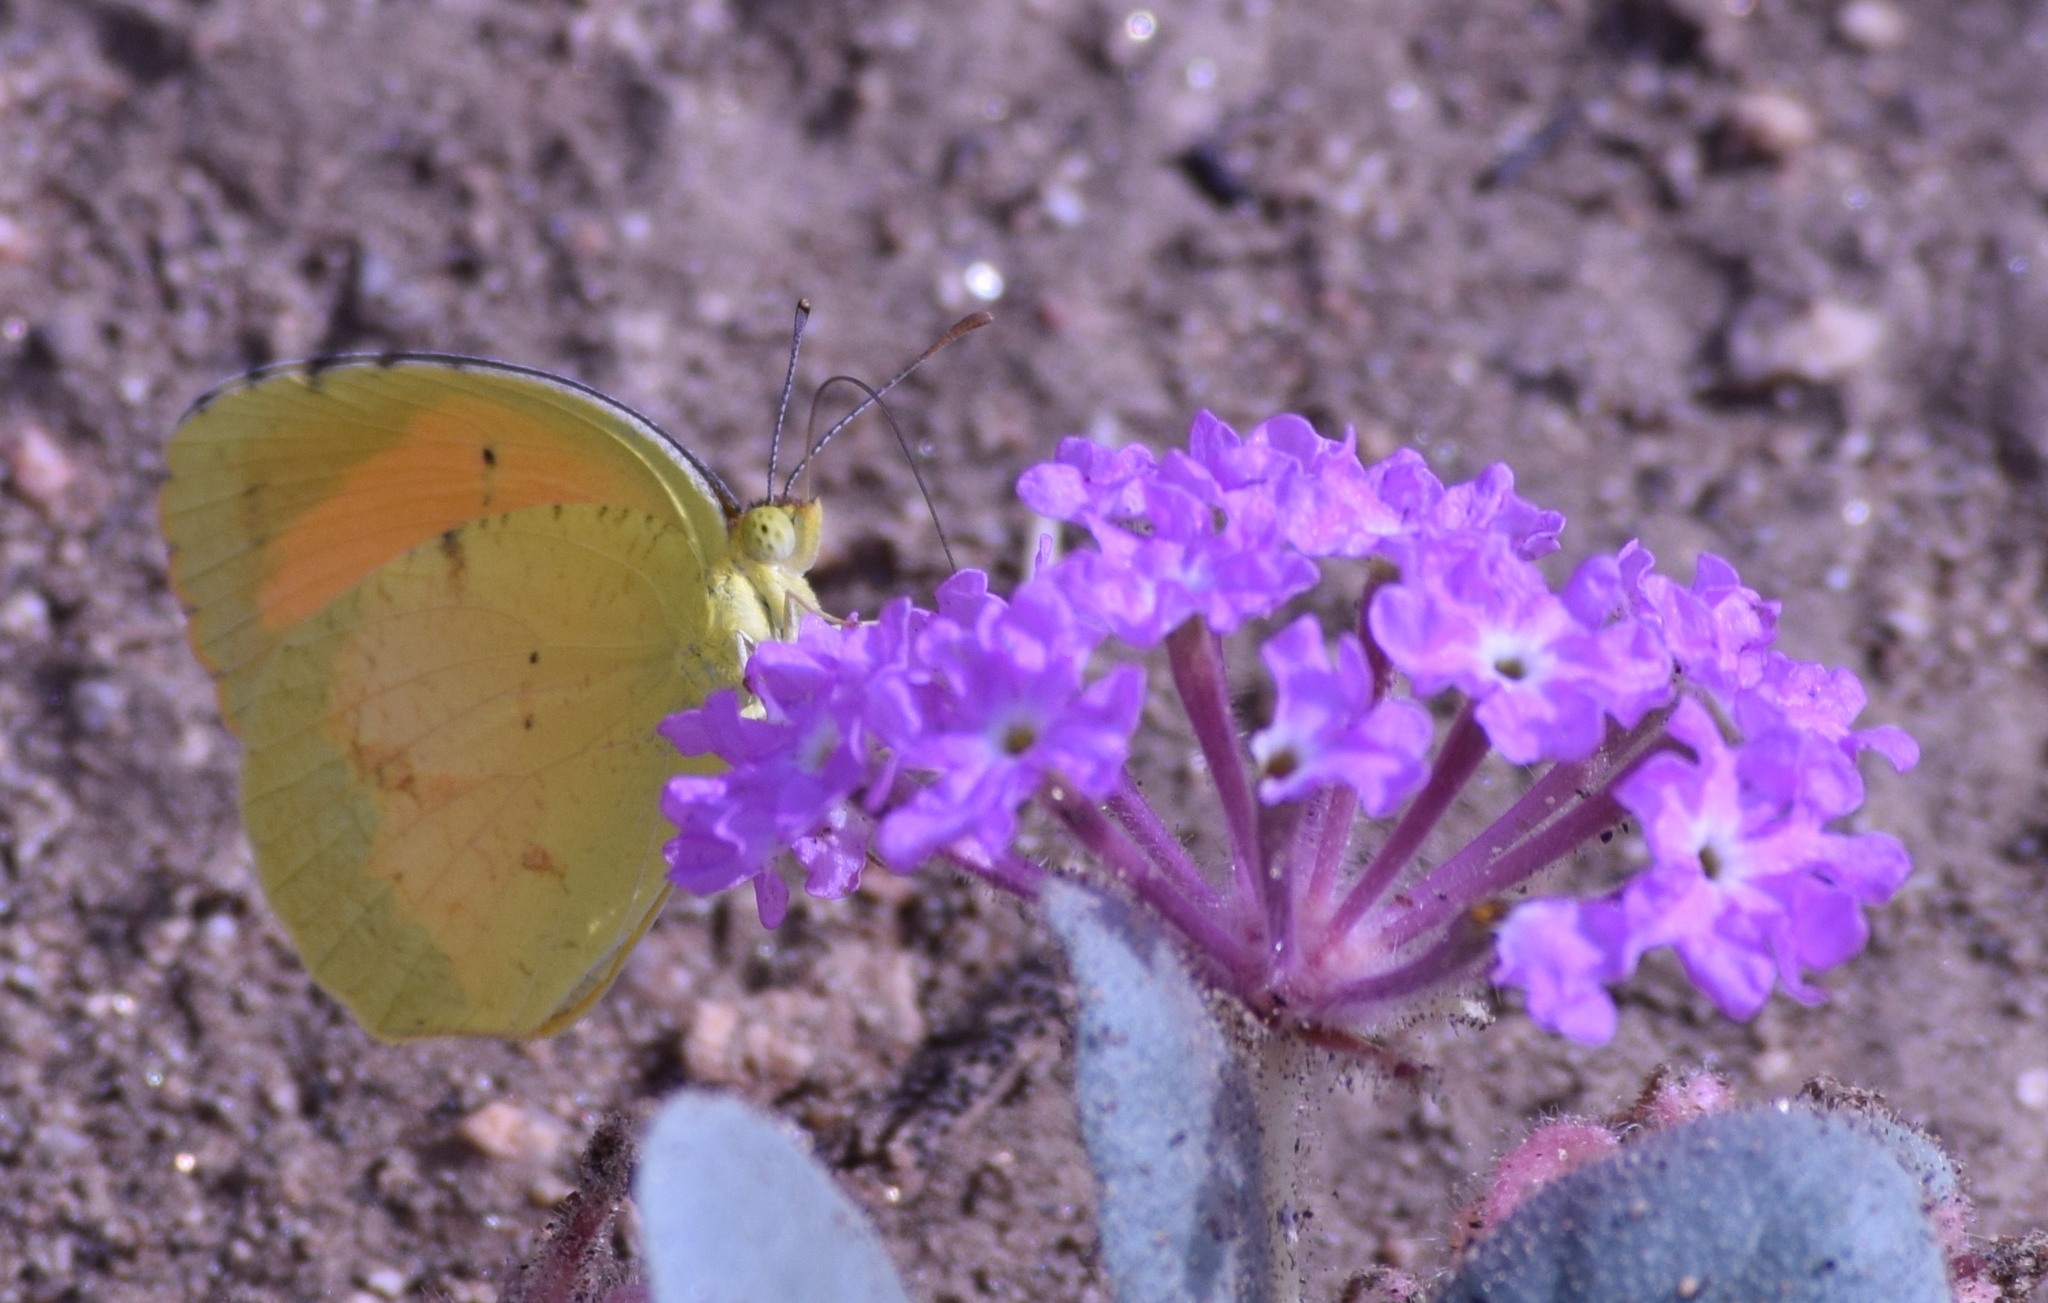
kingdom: Animalia
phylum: Arthropoda
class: Insecta
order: Lepidoptera
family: Pieridae
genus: Abaeis
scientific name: Abaeis nicippe
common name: Sleepy orange
